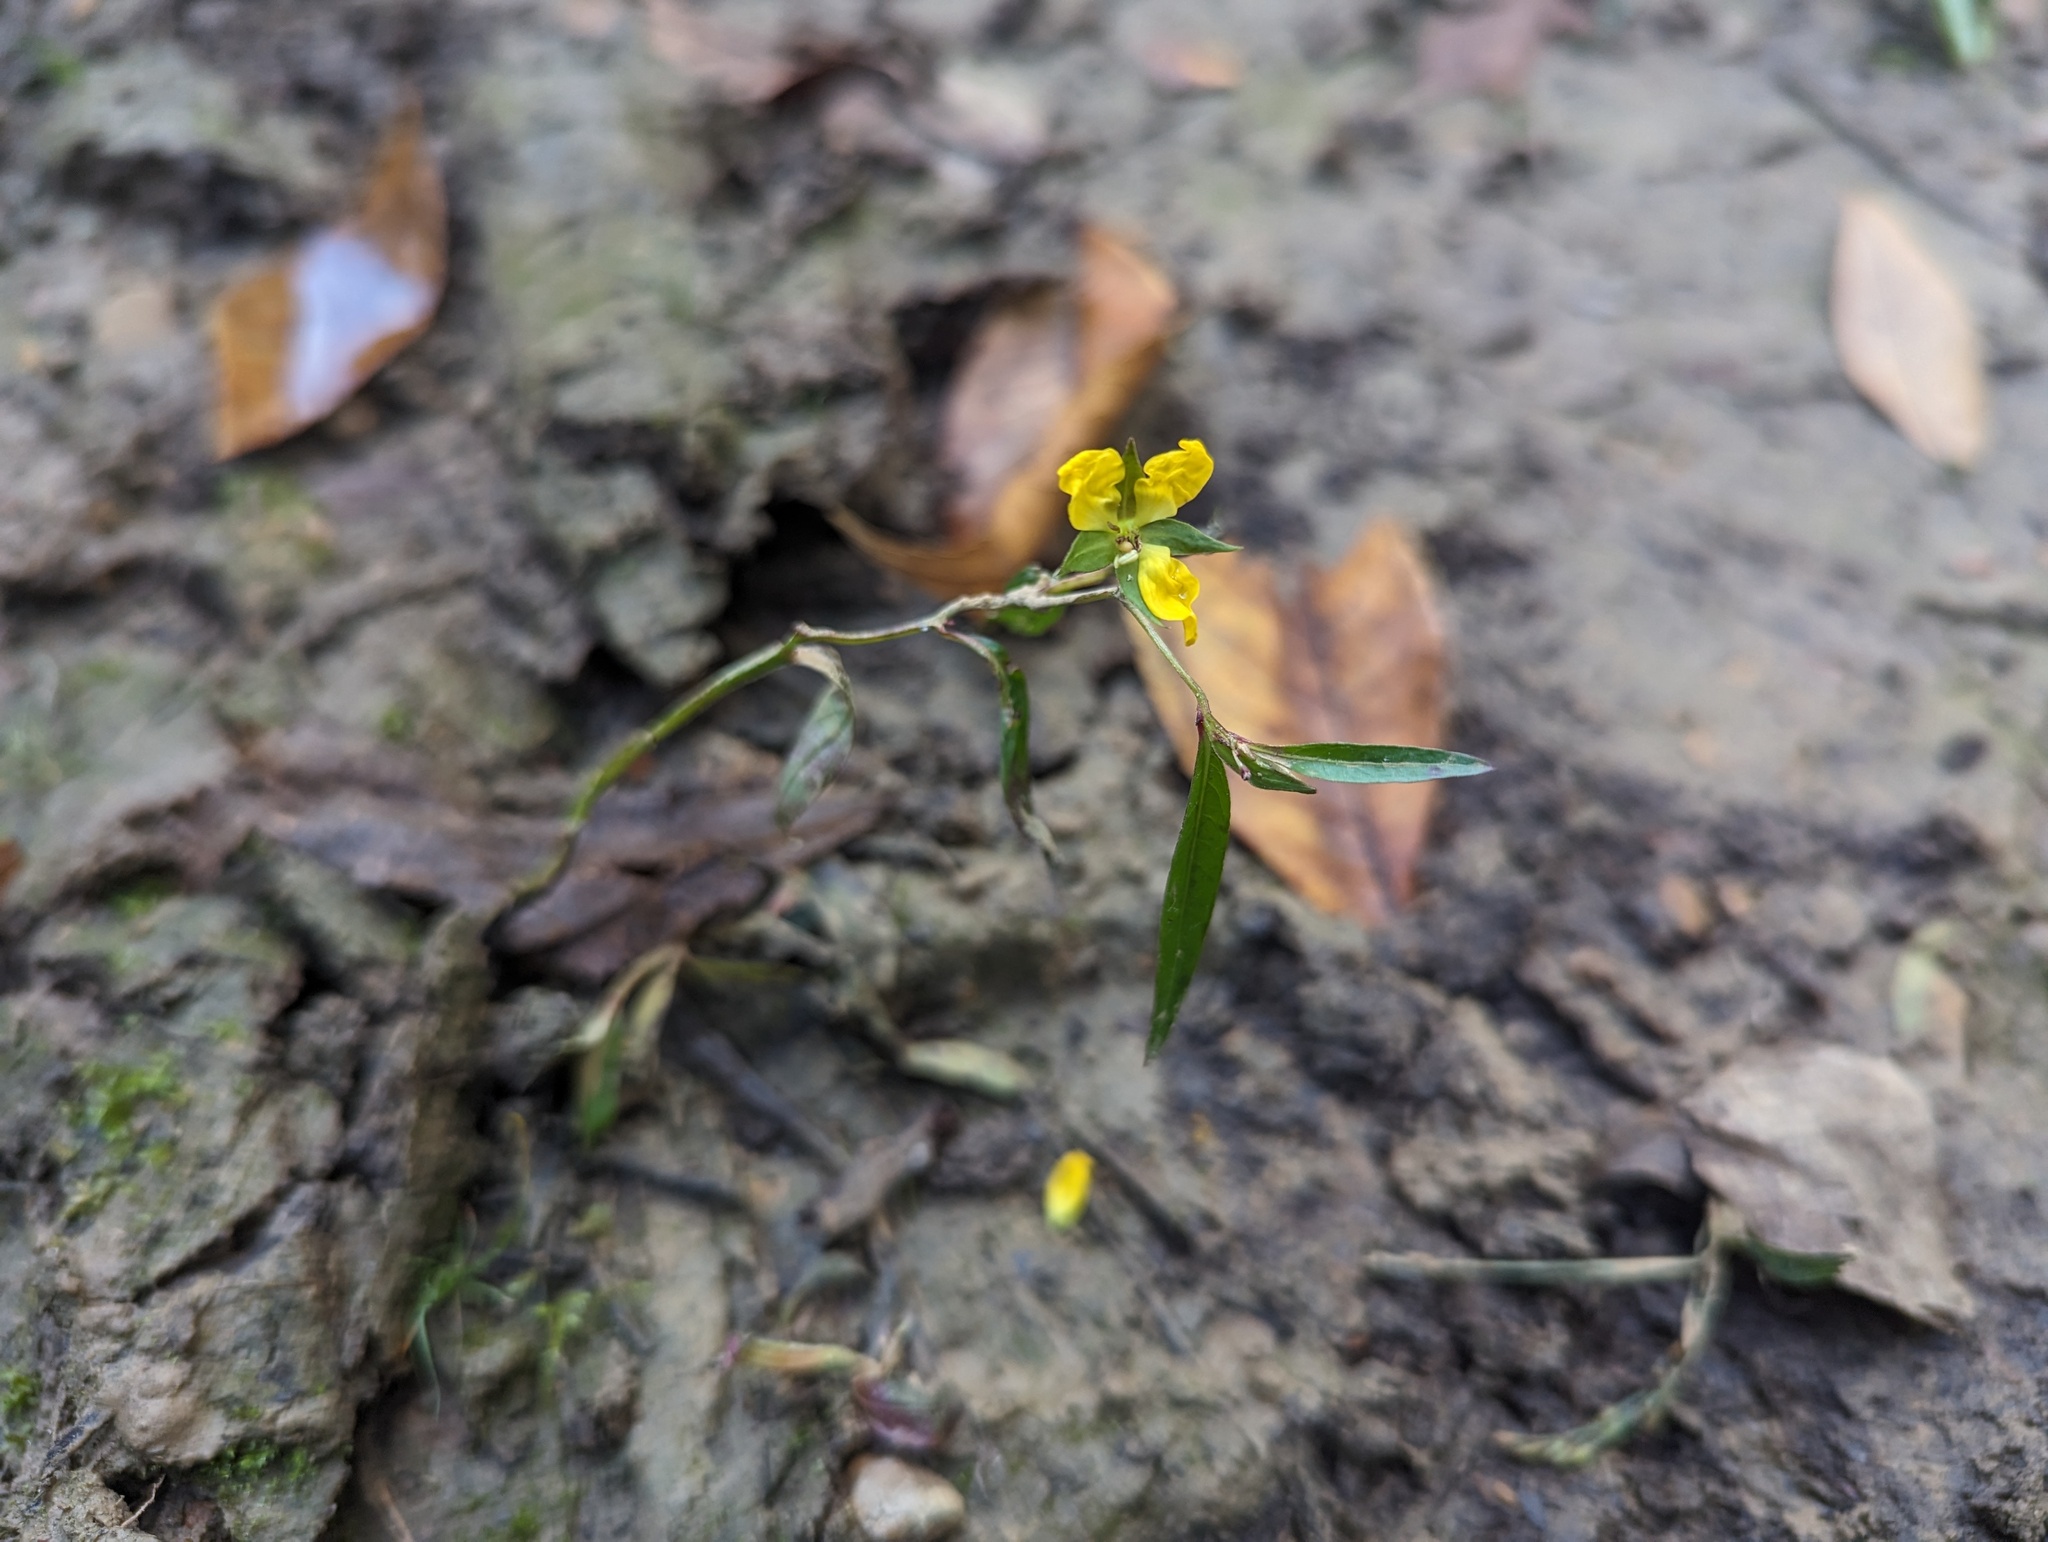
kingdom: Plantae
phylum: Tracheophyta
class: Magnoliopsida
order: Myrtales
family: Onagraceae
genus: Ludwigia
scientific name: Ludwigia decurrens
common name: Winged water-primrose
